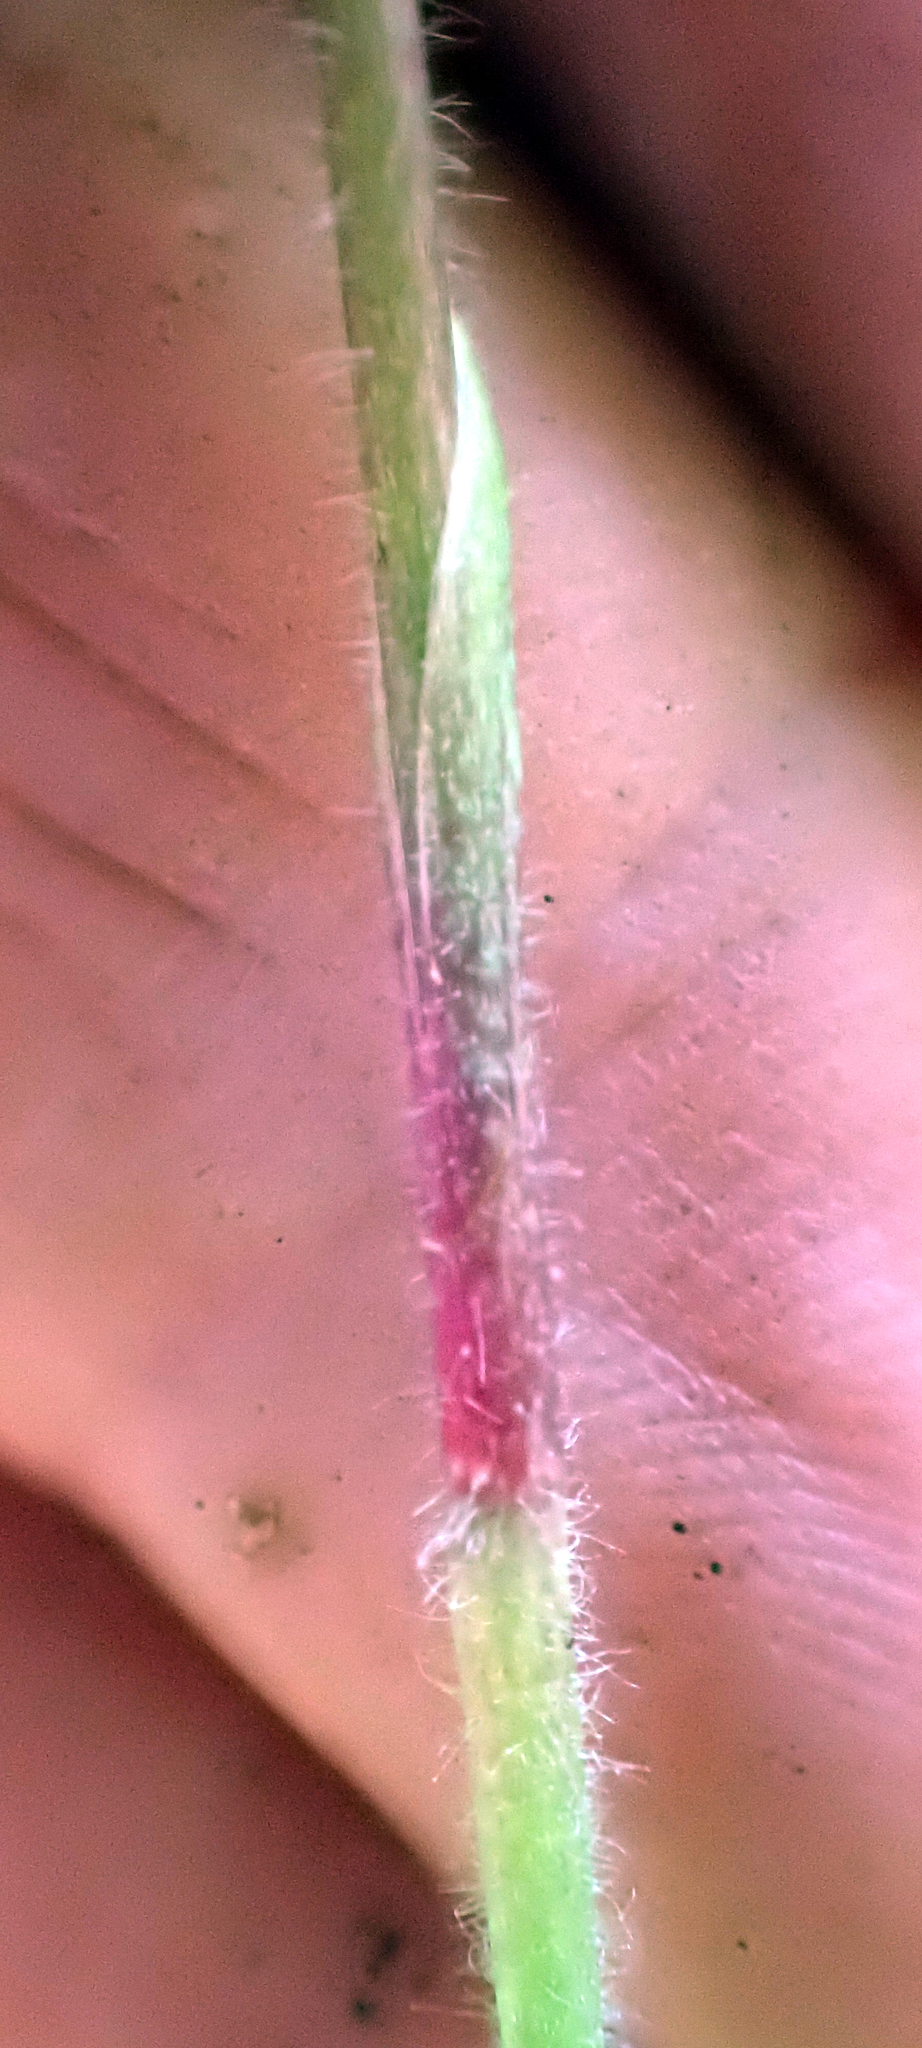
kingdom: Plantae
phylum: Tracheophyta
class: Liliopsida
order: Asparagales
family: Orchidaceae
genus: Caladenia
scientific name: Caladenia variegata
